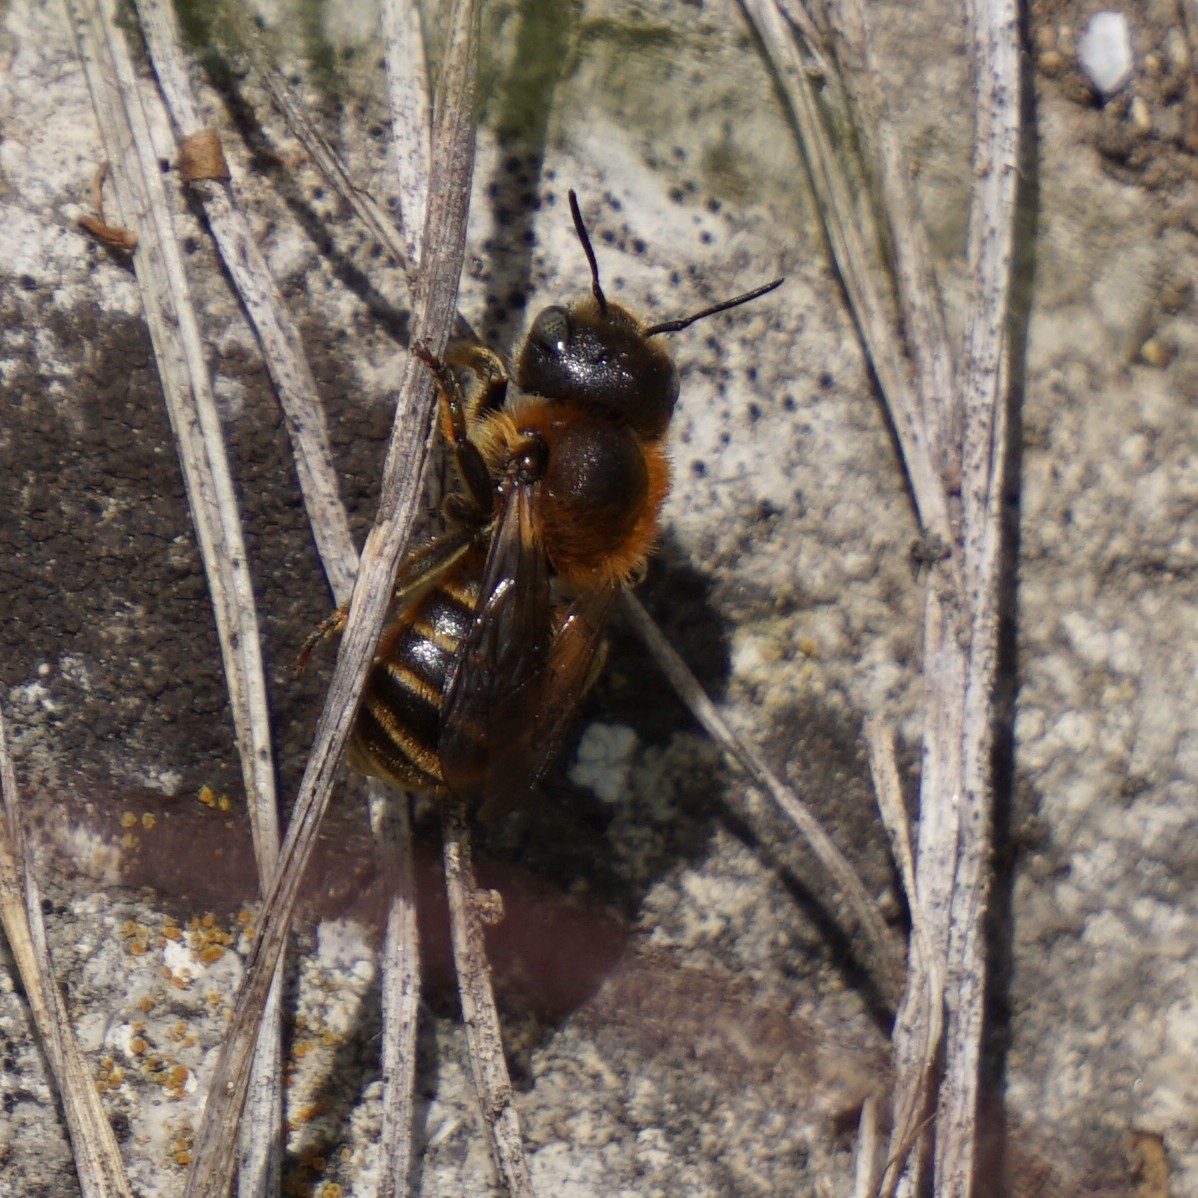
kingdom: Animalia
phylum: Arthropoda
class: Insecta
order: Hymenoptera
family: Megachilidae
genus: Osmia
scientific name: Osmia aurulenta
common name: Gold-fringed mason bee
